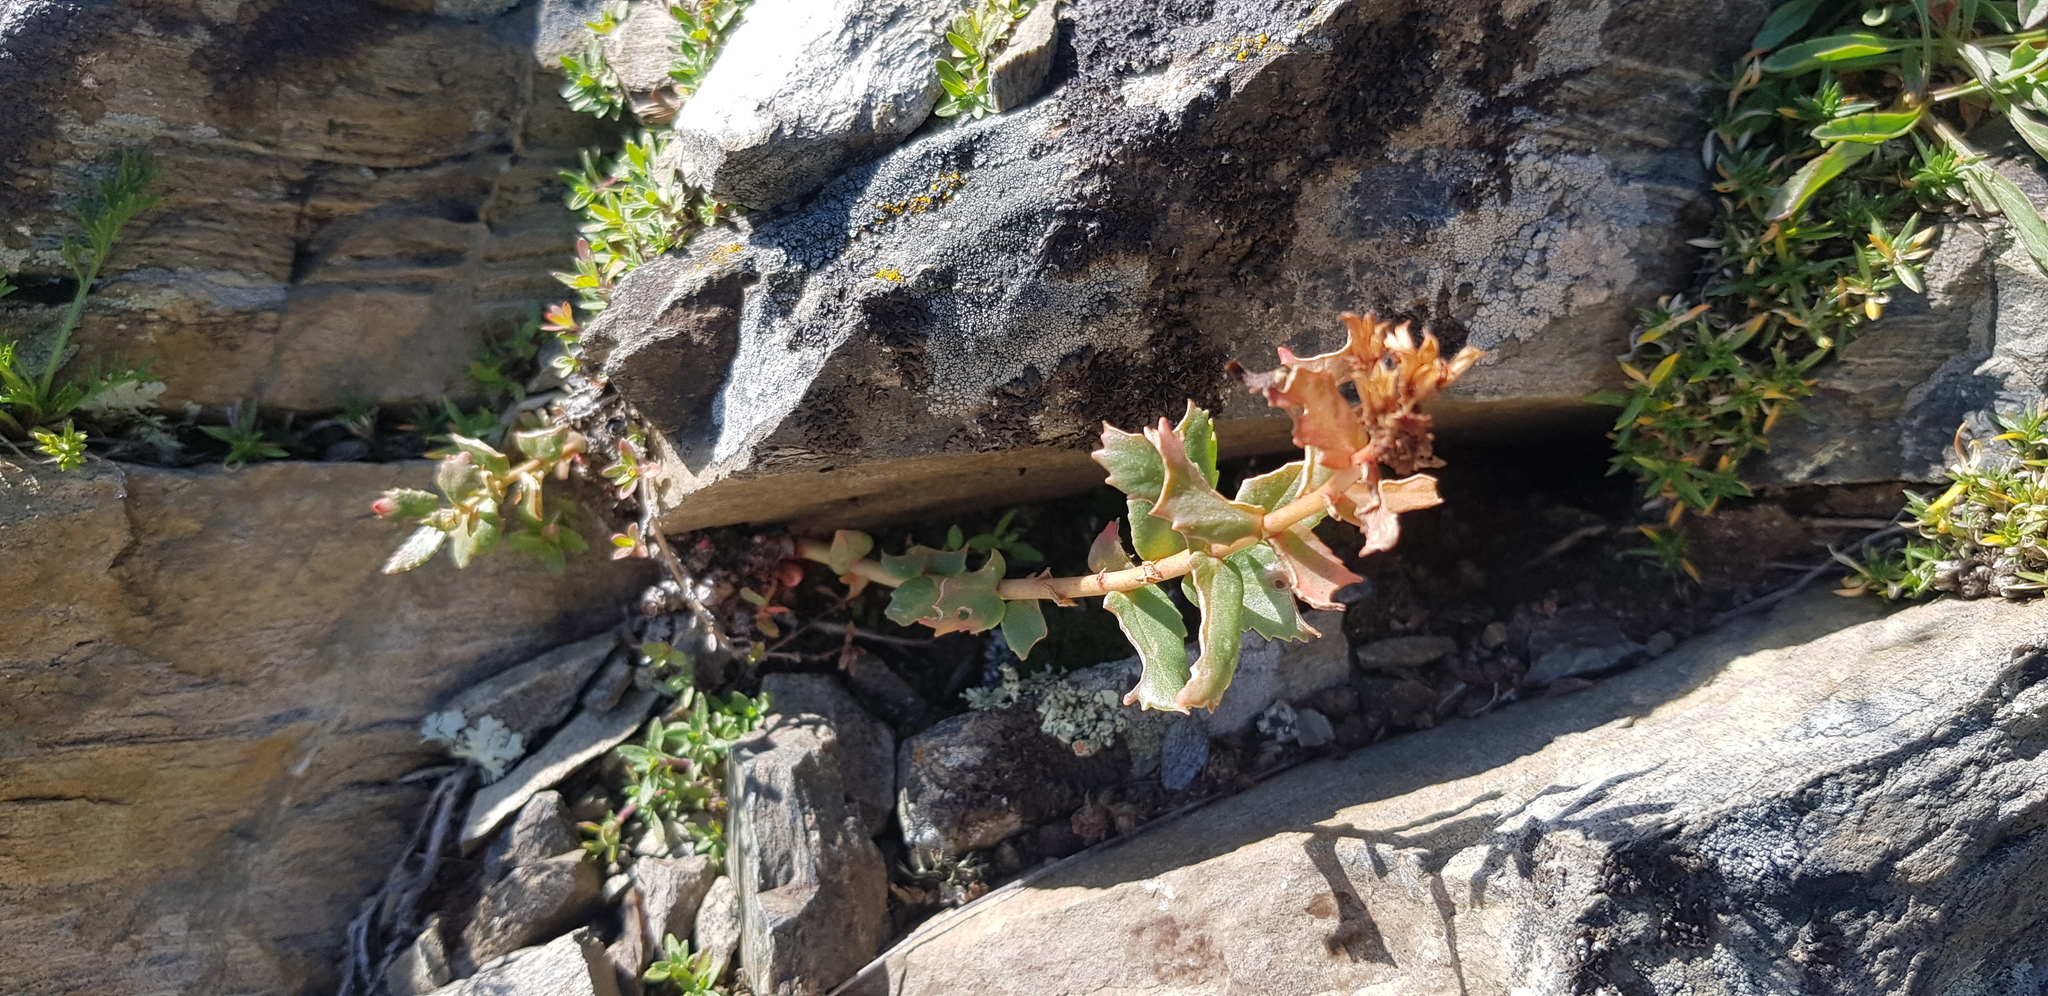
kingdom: Plantae
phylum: Tracheophyta
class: Magnoliopsida
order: Saxifragales
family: Crassulaceae
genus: Rhodiola
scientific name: Rhodiola rosea
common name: Roseroot
